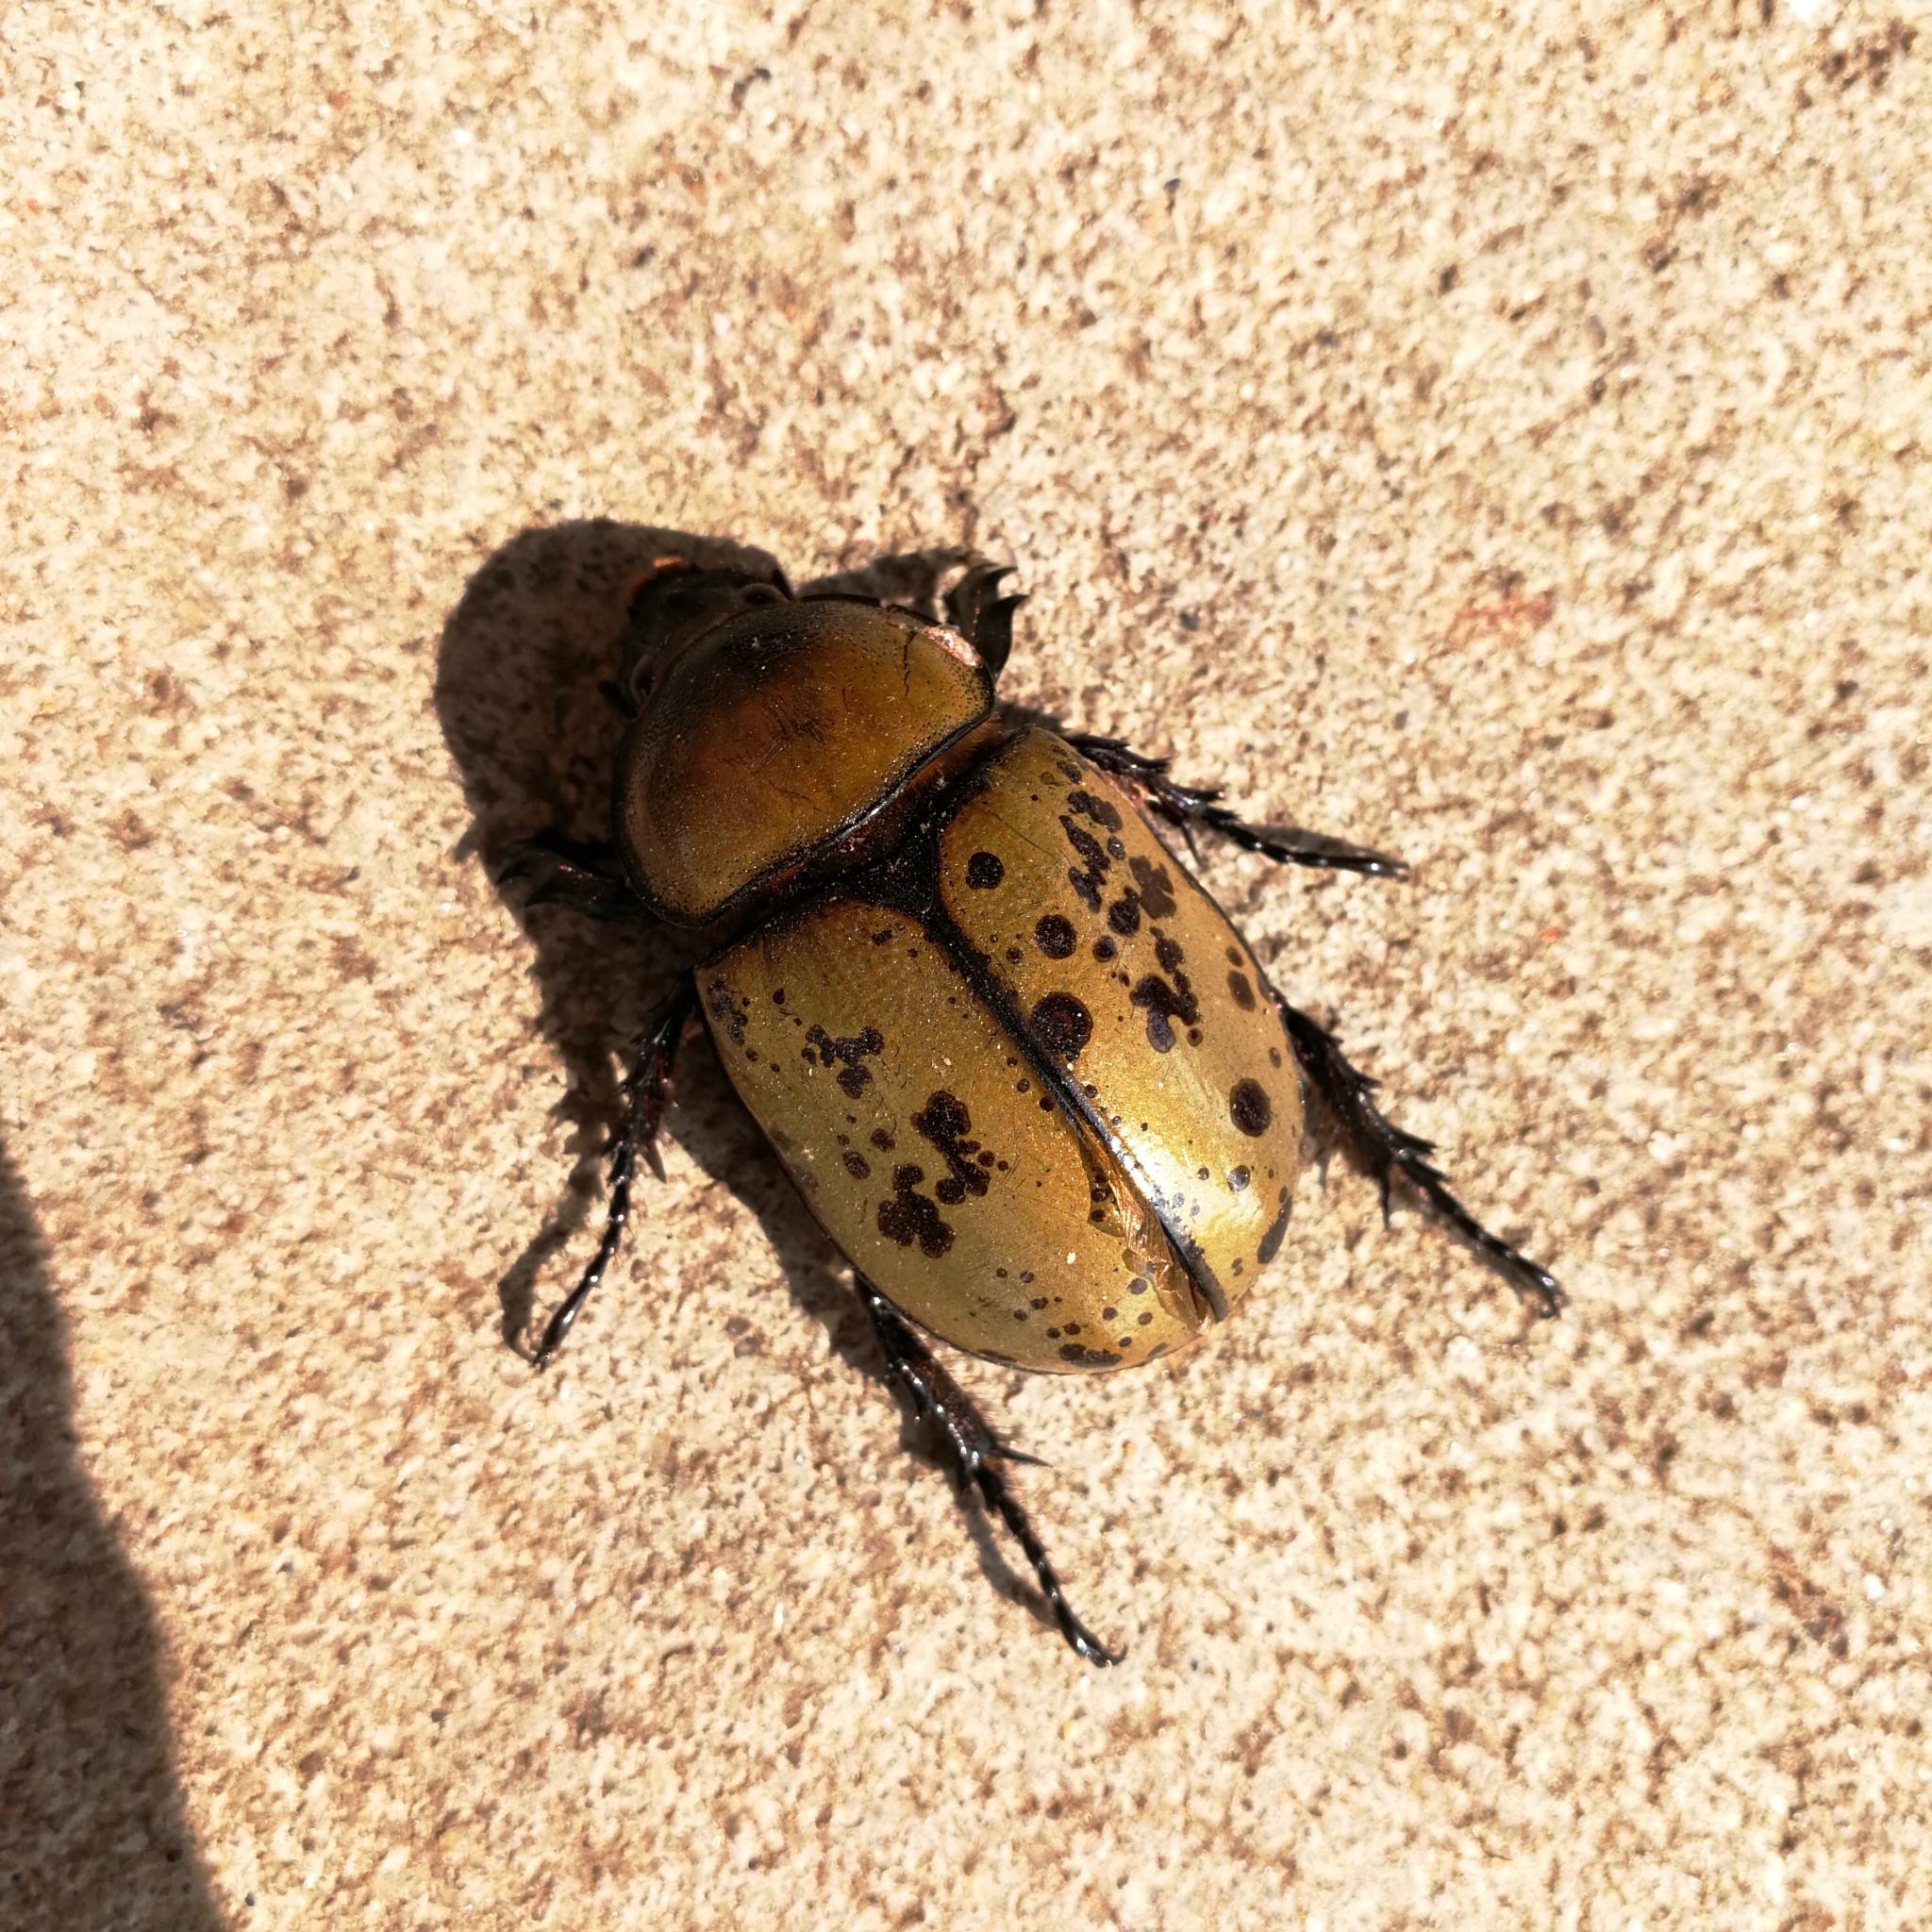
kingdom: Animalia
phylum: Arthropoda
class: Insecta
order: Coleoptera
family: Scarabaeidae
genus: Dynastes
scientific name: Dynastes tityus
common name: Eastern hercules beetle
